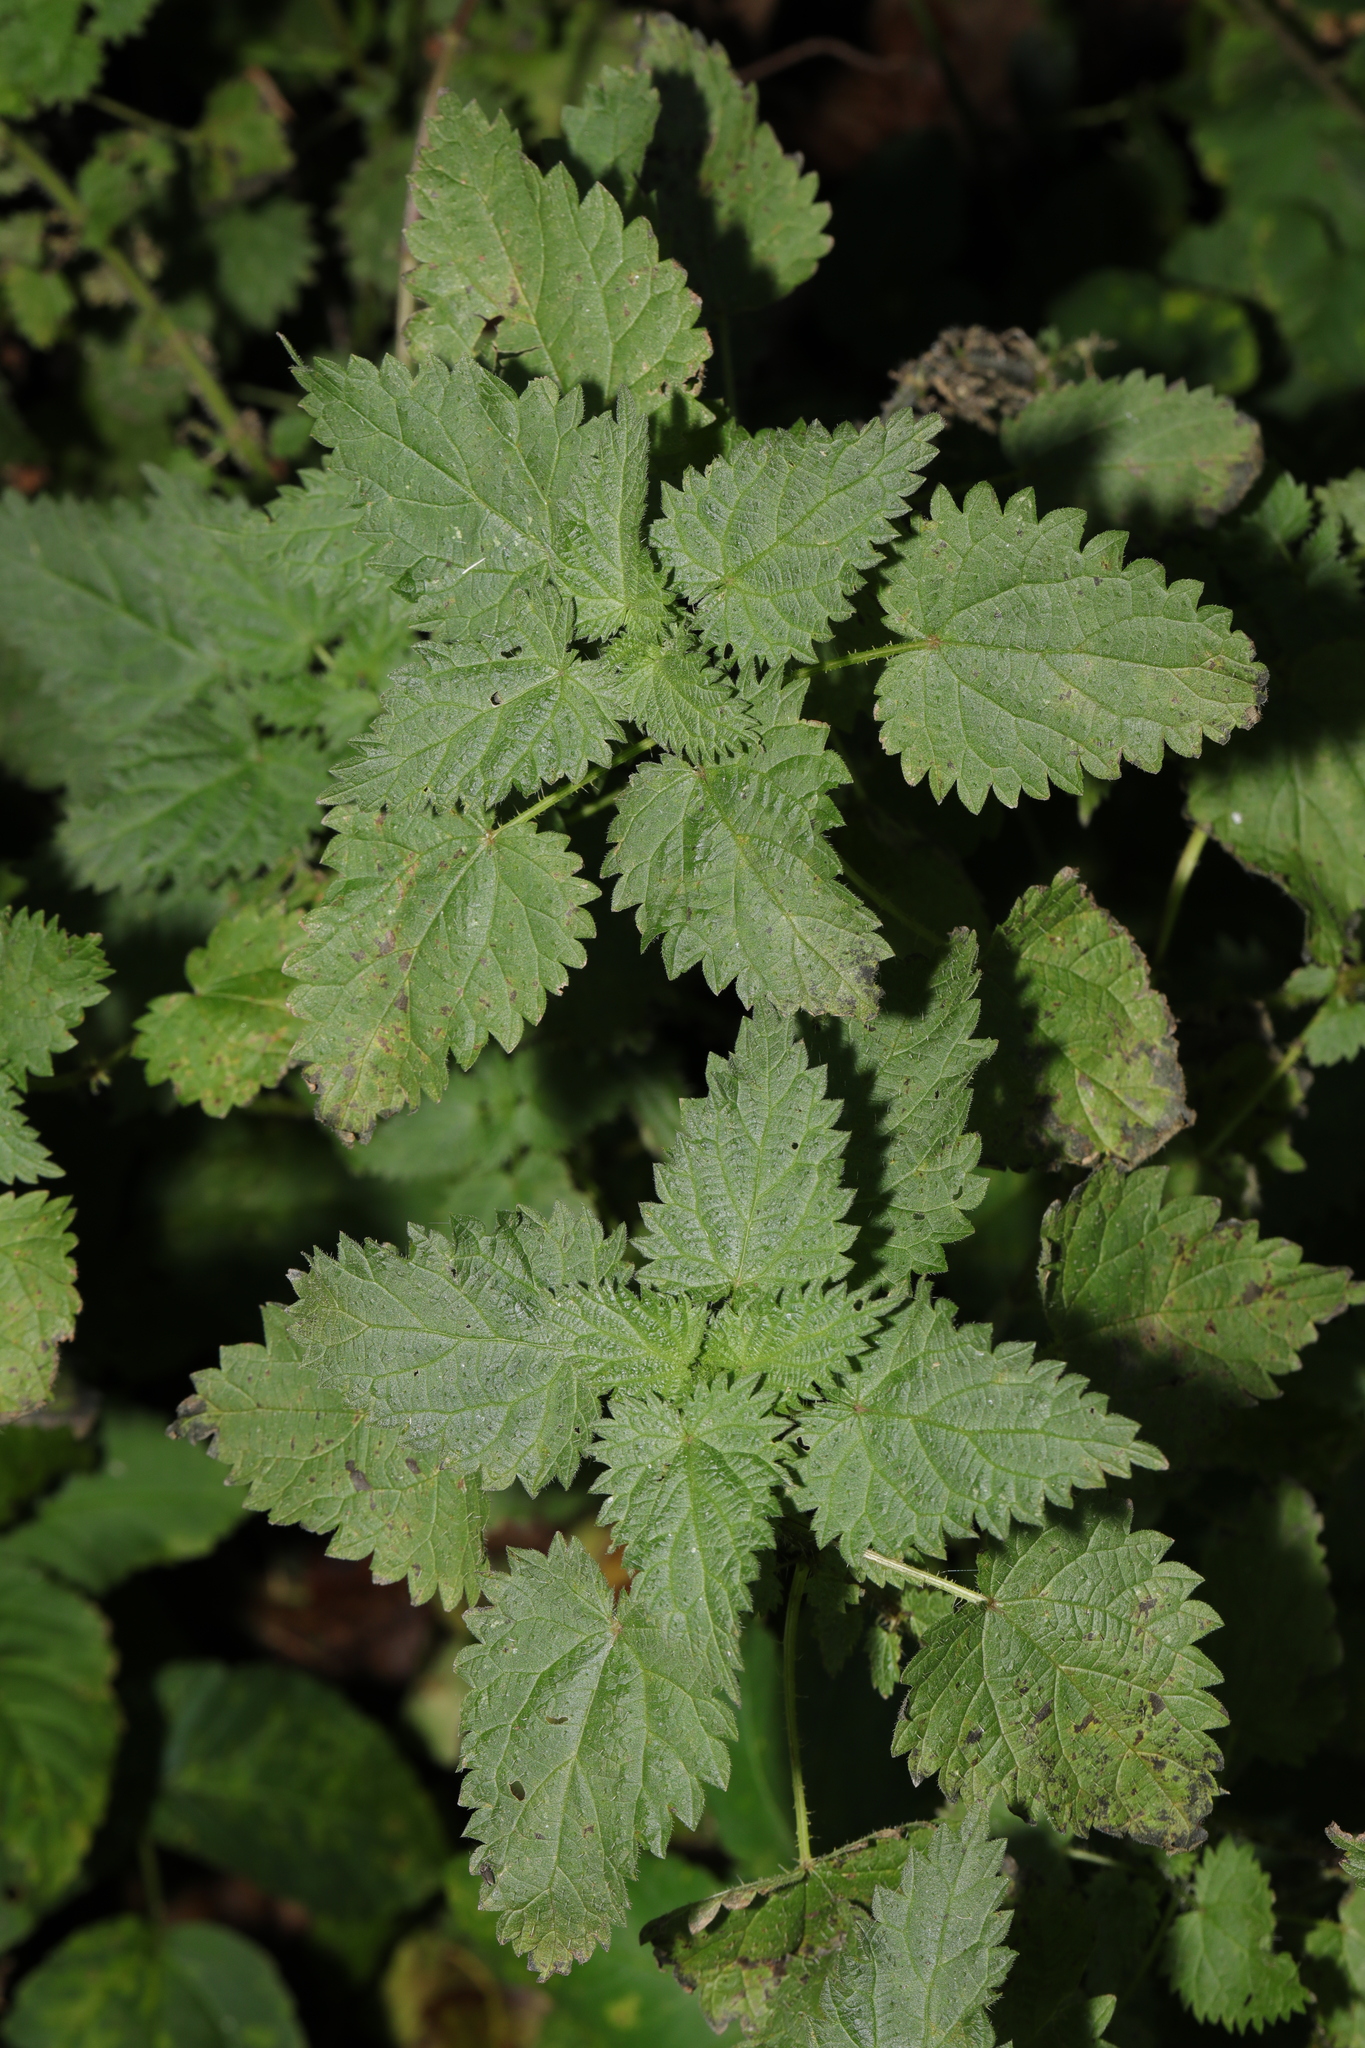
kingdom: Plantae
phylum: Tracheophyta
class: Magnoliopsida
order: Rosales
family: Urticaceae
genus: Urtica
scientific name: Urtica dioica
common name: Common nettle
